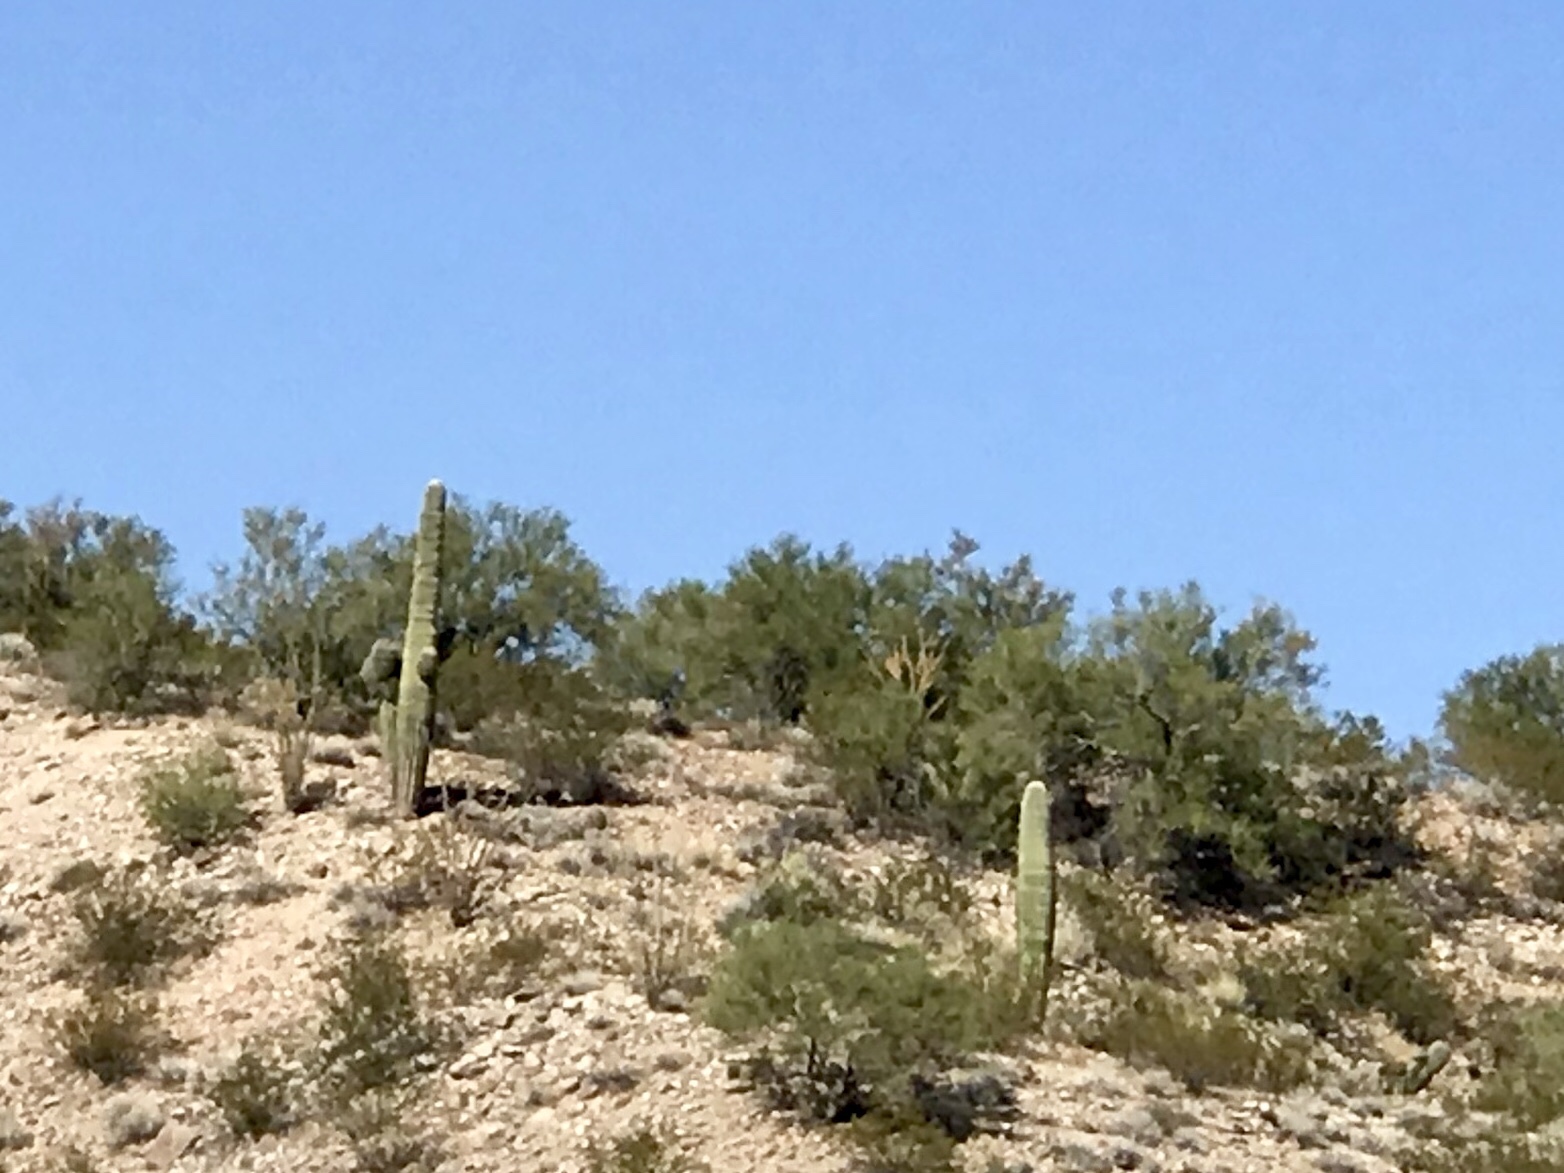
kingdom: Plantae
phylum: Tracheophyta
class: Magnoliopsida
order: Caryophyllales
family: Cactaceae
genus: Carnegiea
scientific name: Carnegiea gigantea
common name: Saguaro
